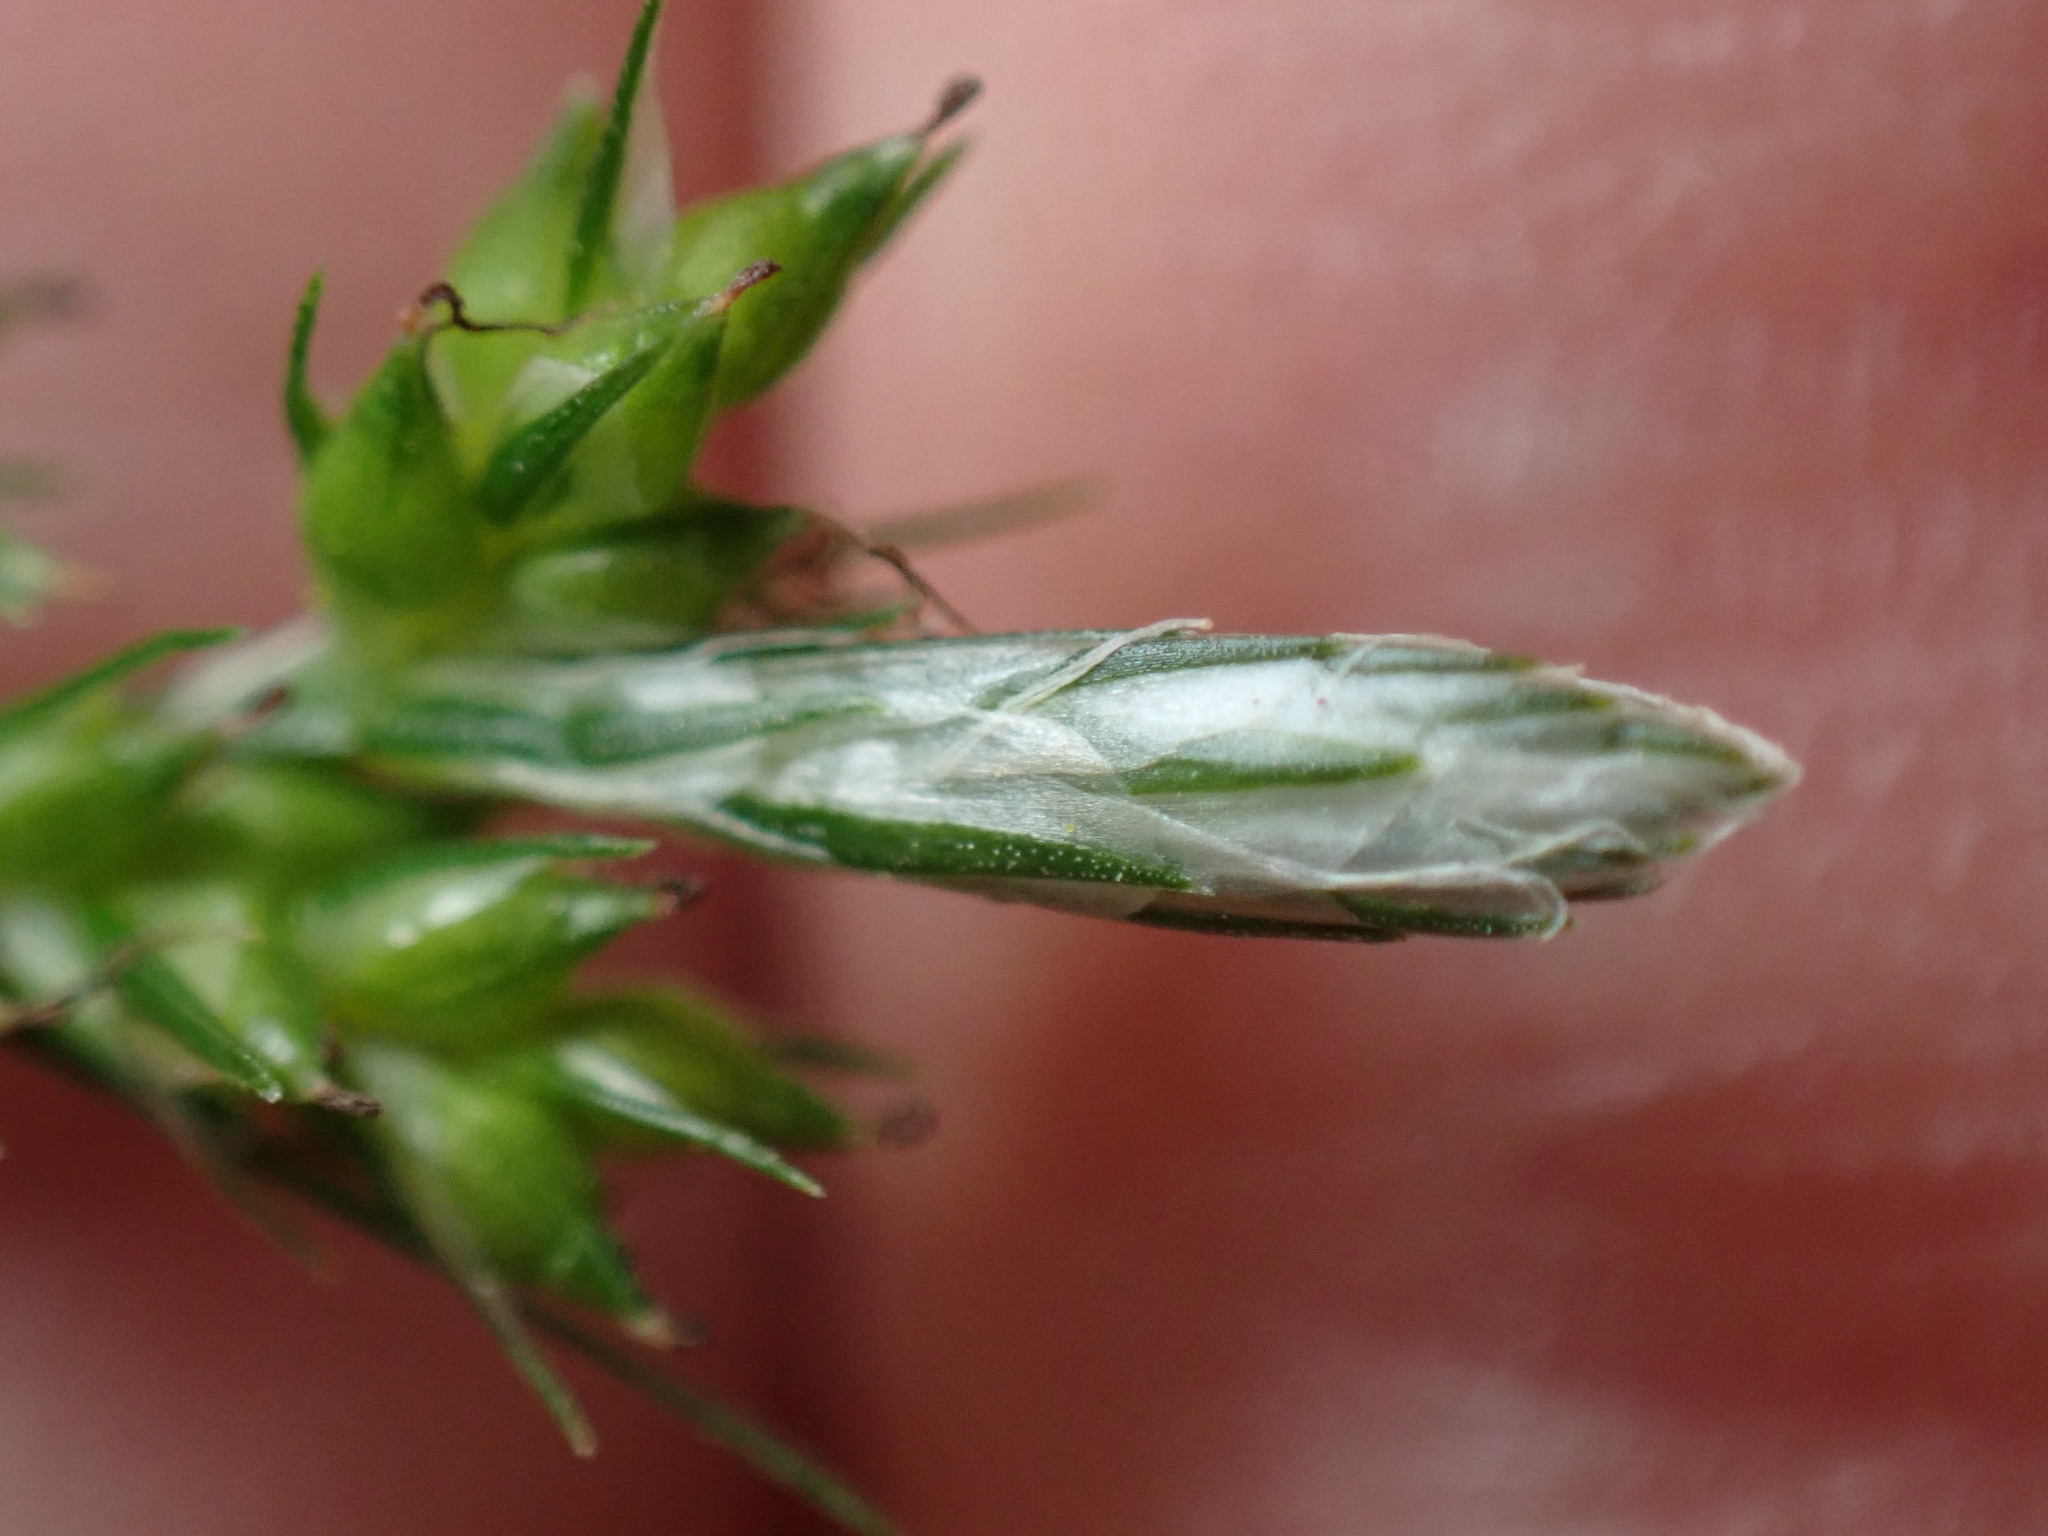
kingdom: Plantae
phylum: Tracheophyta
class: Liliopsida
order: Poales
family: Cyperaceae
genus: Carex
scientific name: Carex leucochlora
